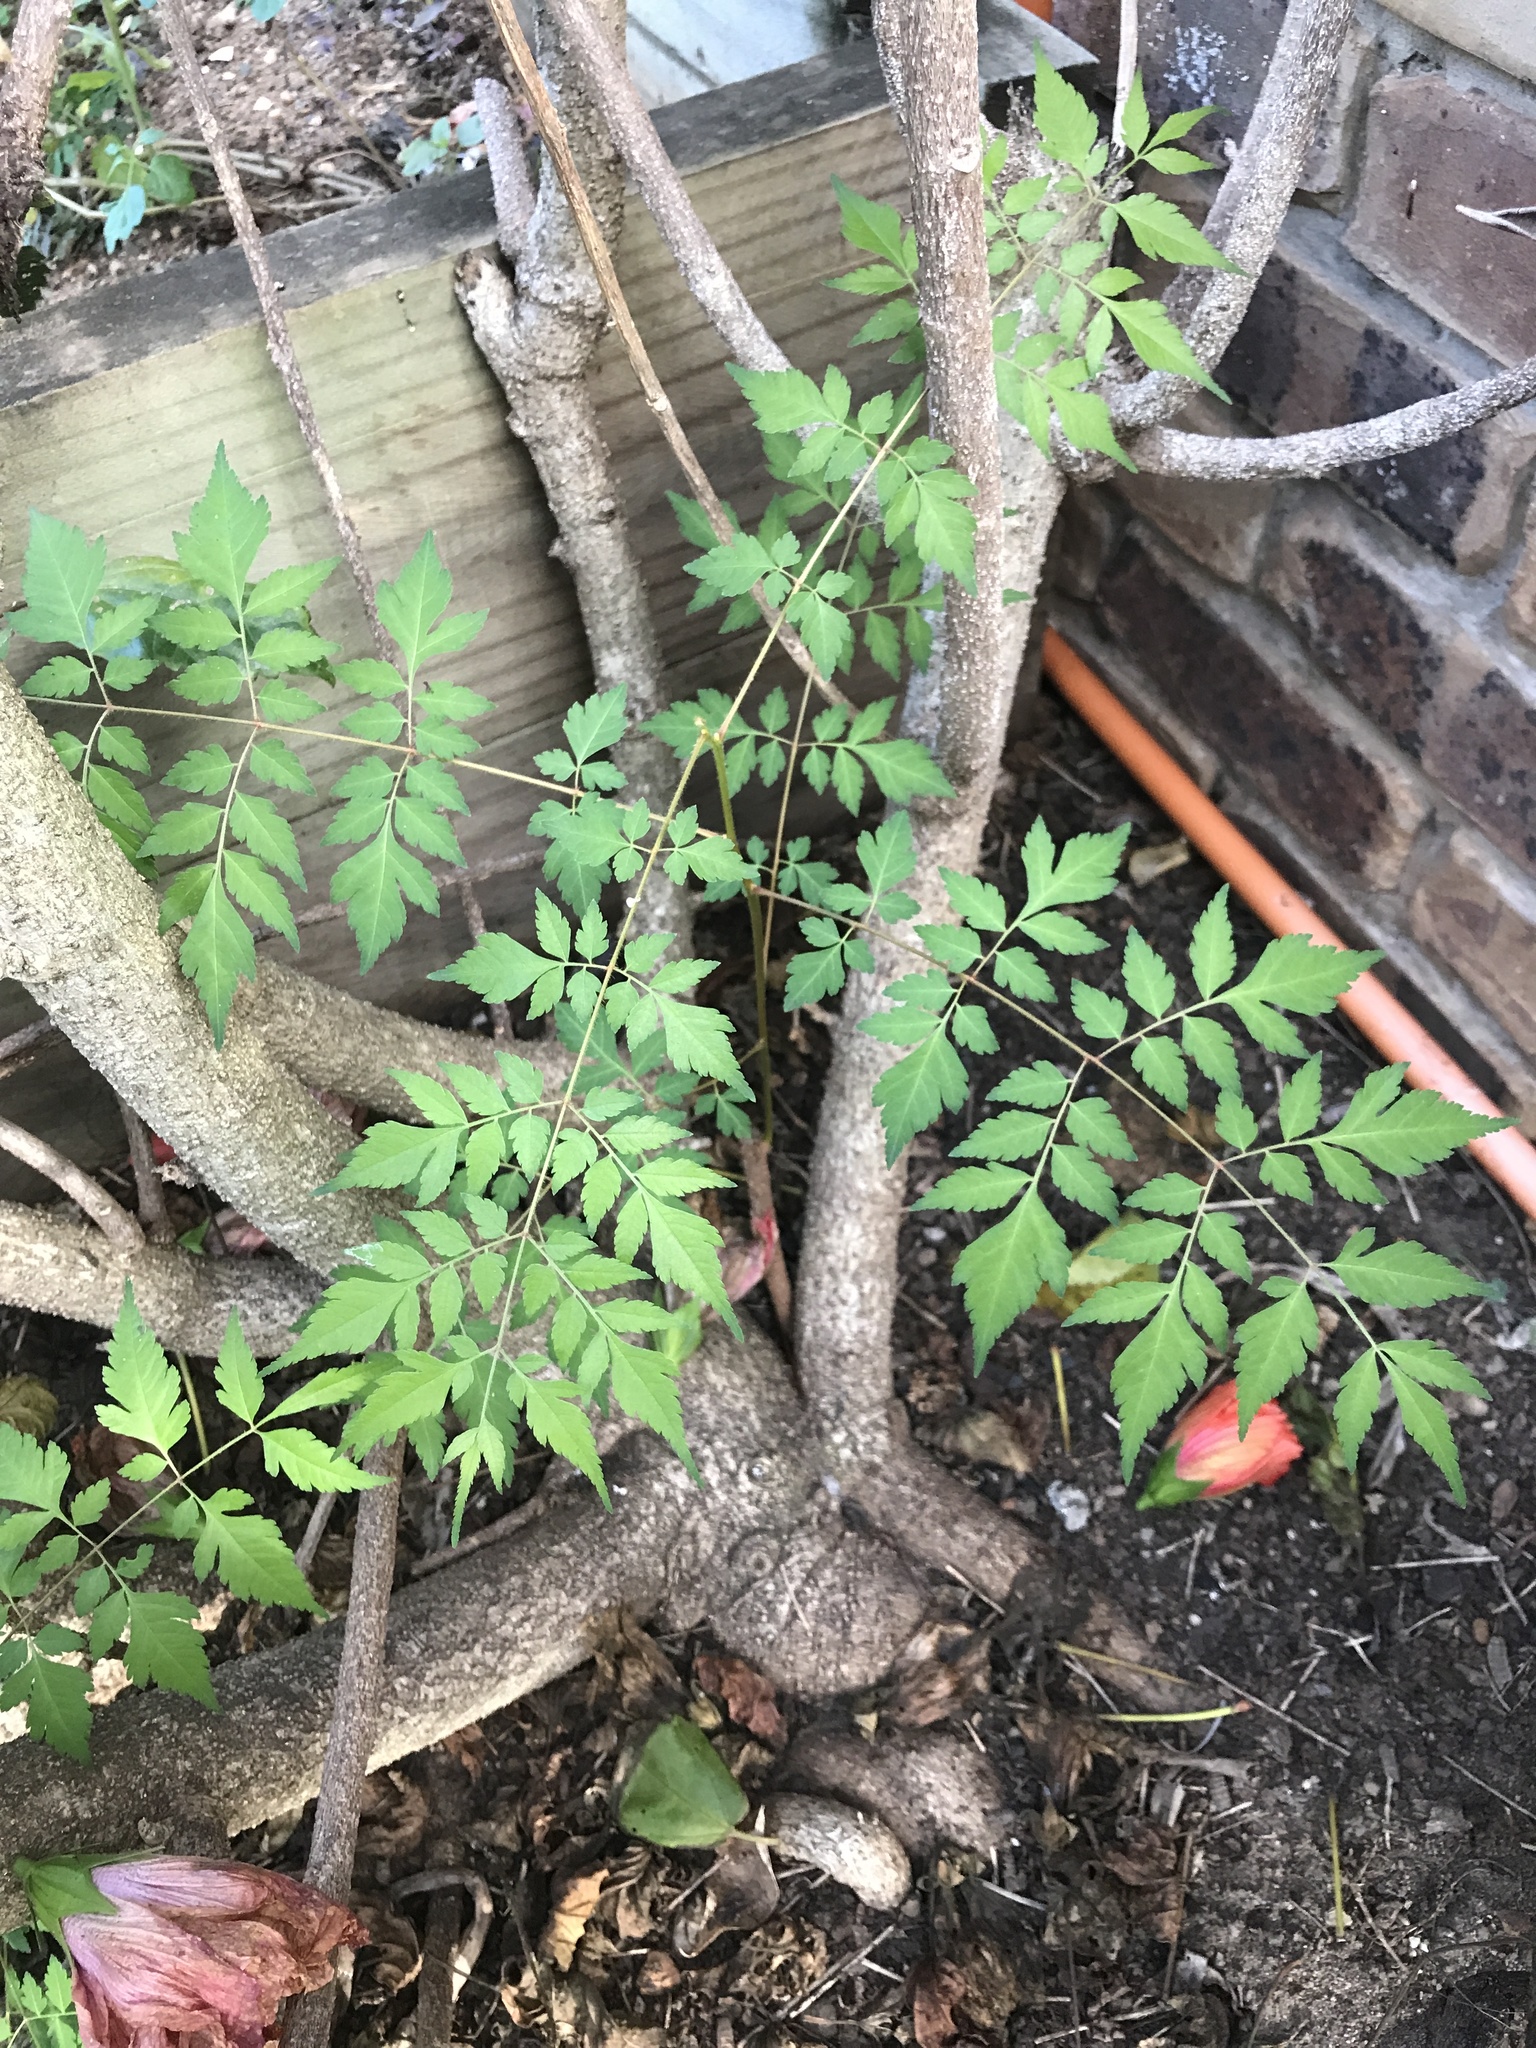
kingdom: Plantae
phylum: Tracheophyta
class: Magnoliopsida
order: Sapindales
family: Sapindaceae
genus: Koelreuteria
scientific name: Koelreuteria elegans
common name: Chinese flame tree
